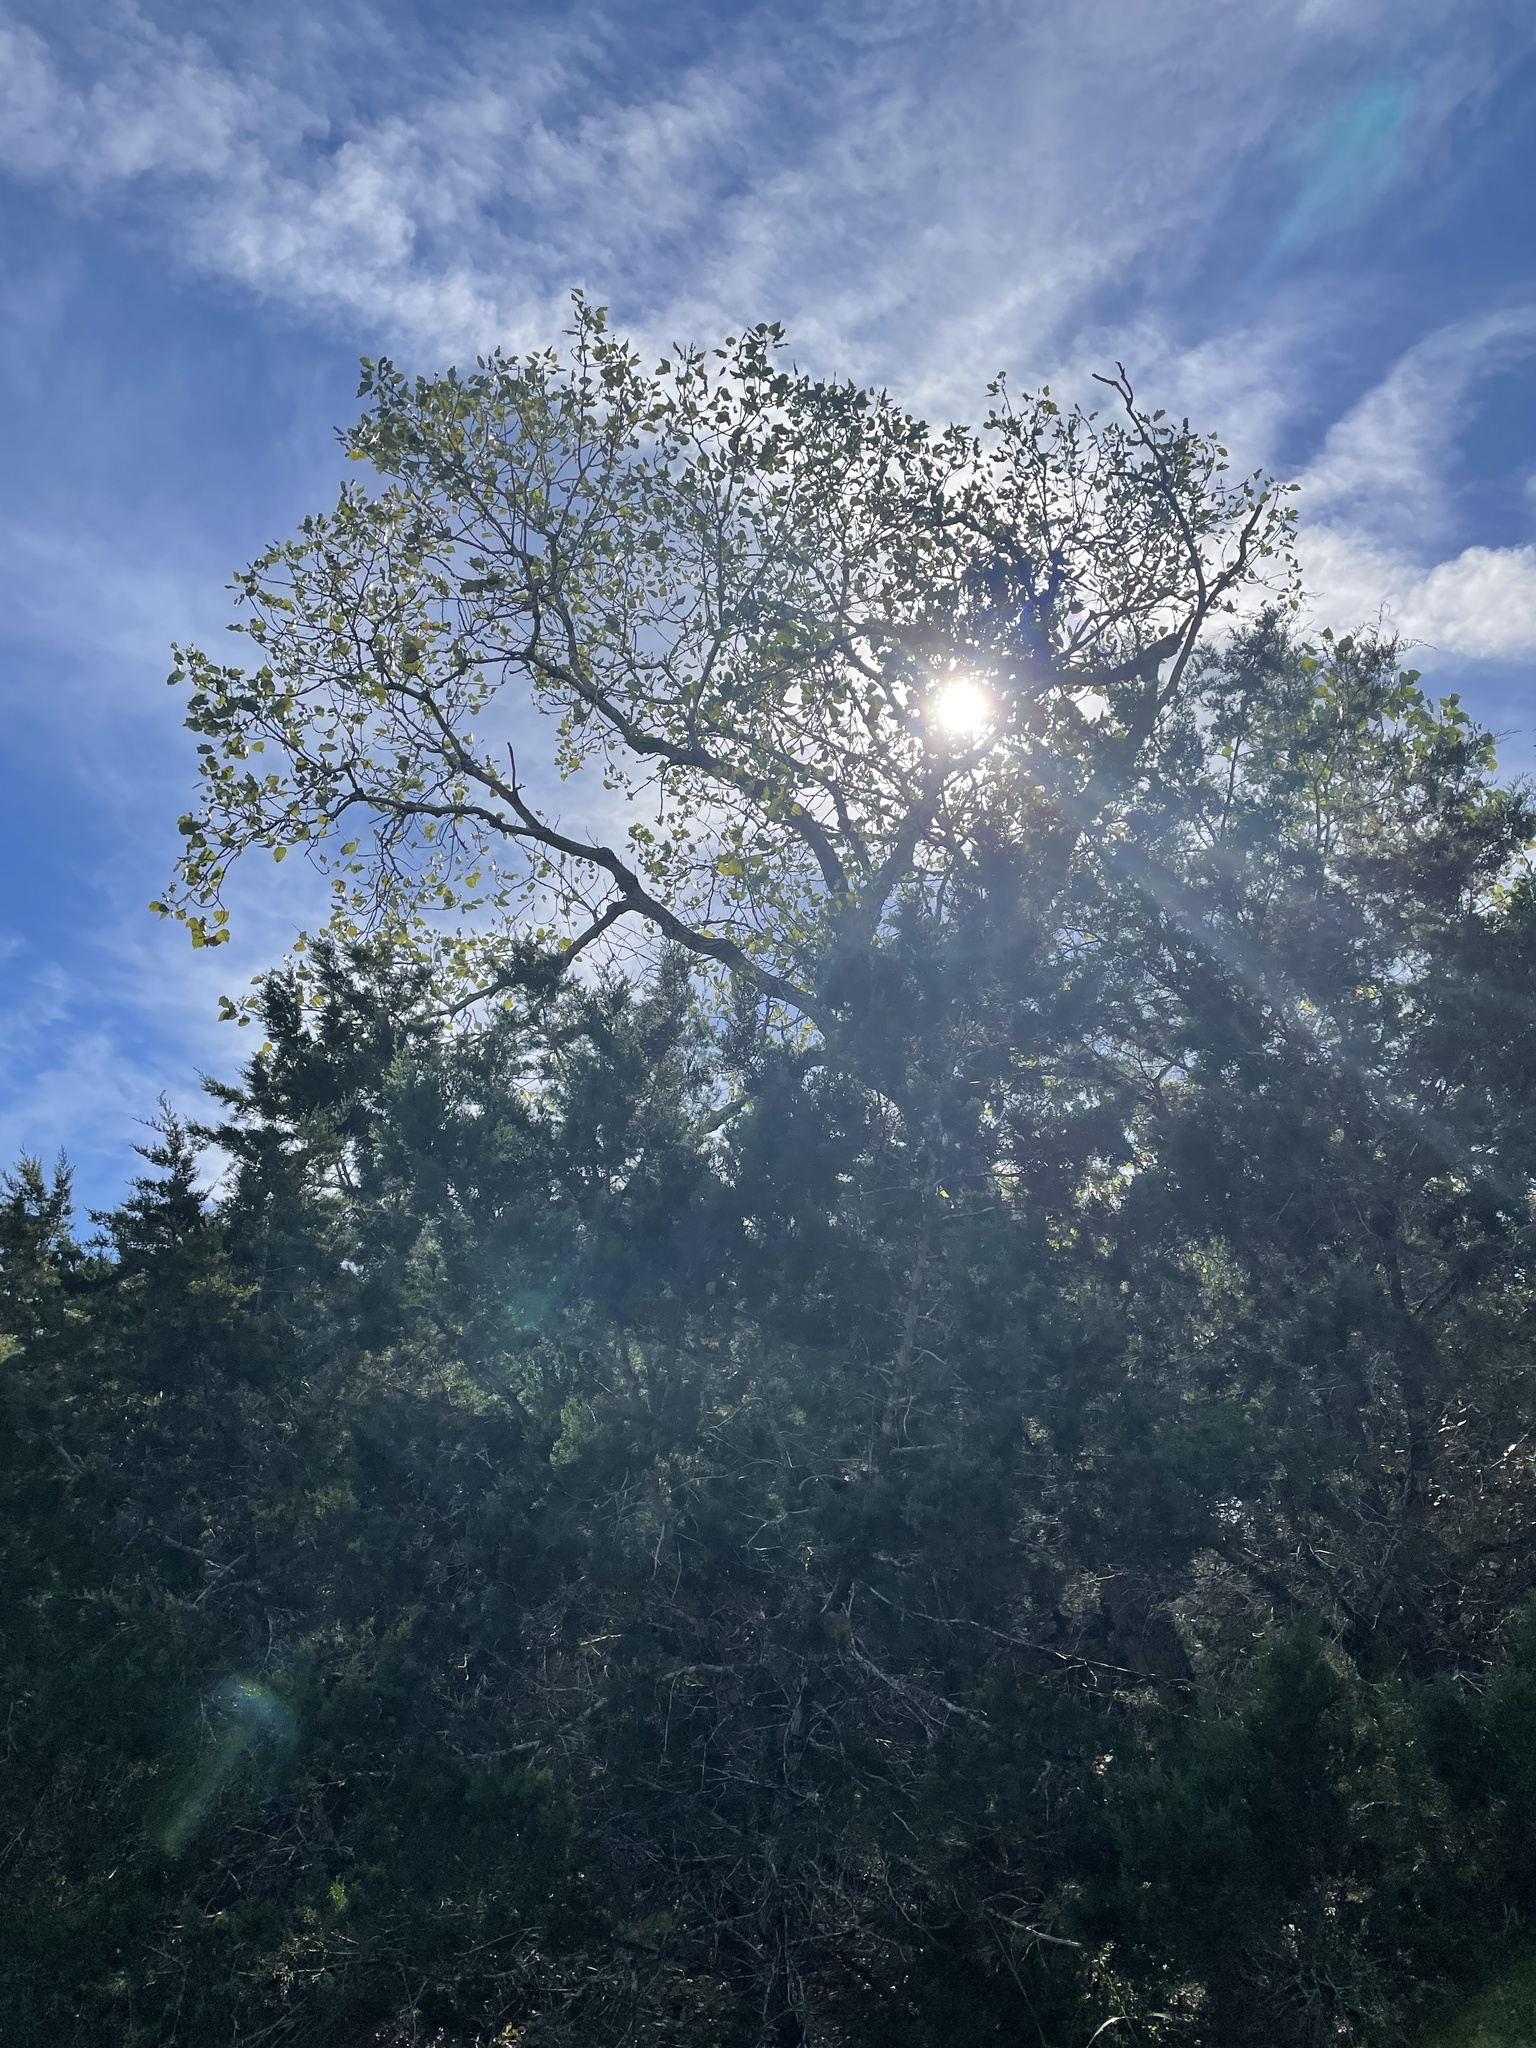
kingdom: Plantae
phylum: Tracheophyta
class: Magnoliopsida
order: Malpighiales
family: Salicaceae
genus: Populus
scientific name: Populus deltoides
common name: Eastern cottonwood
